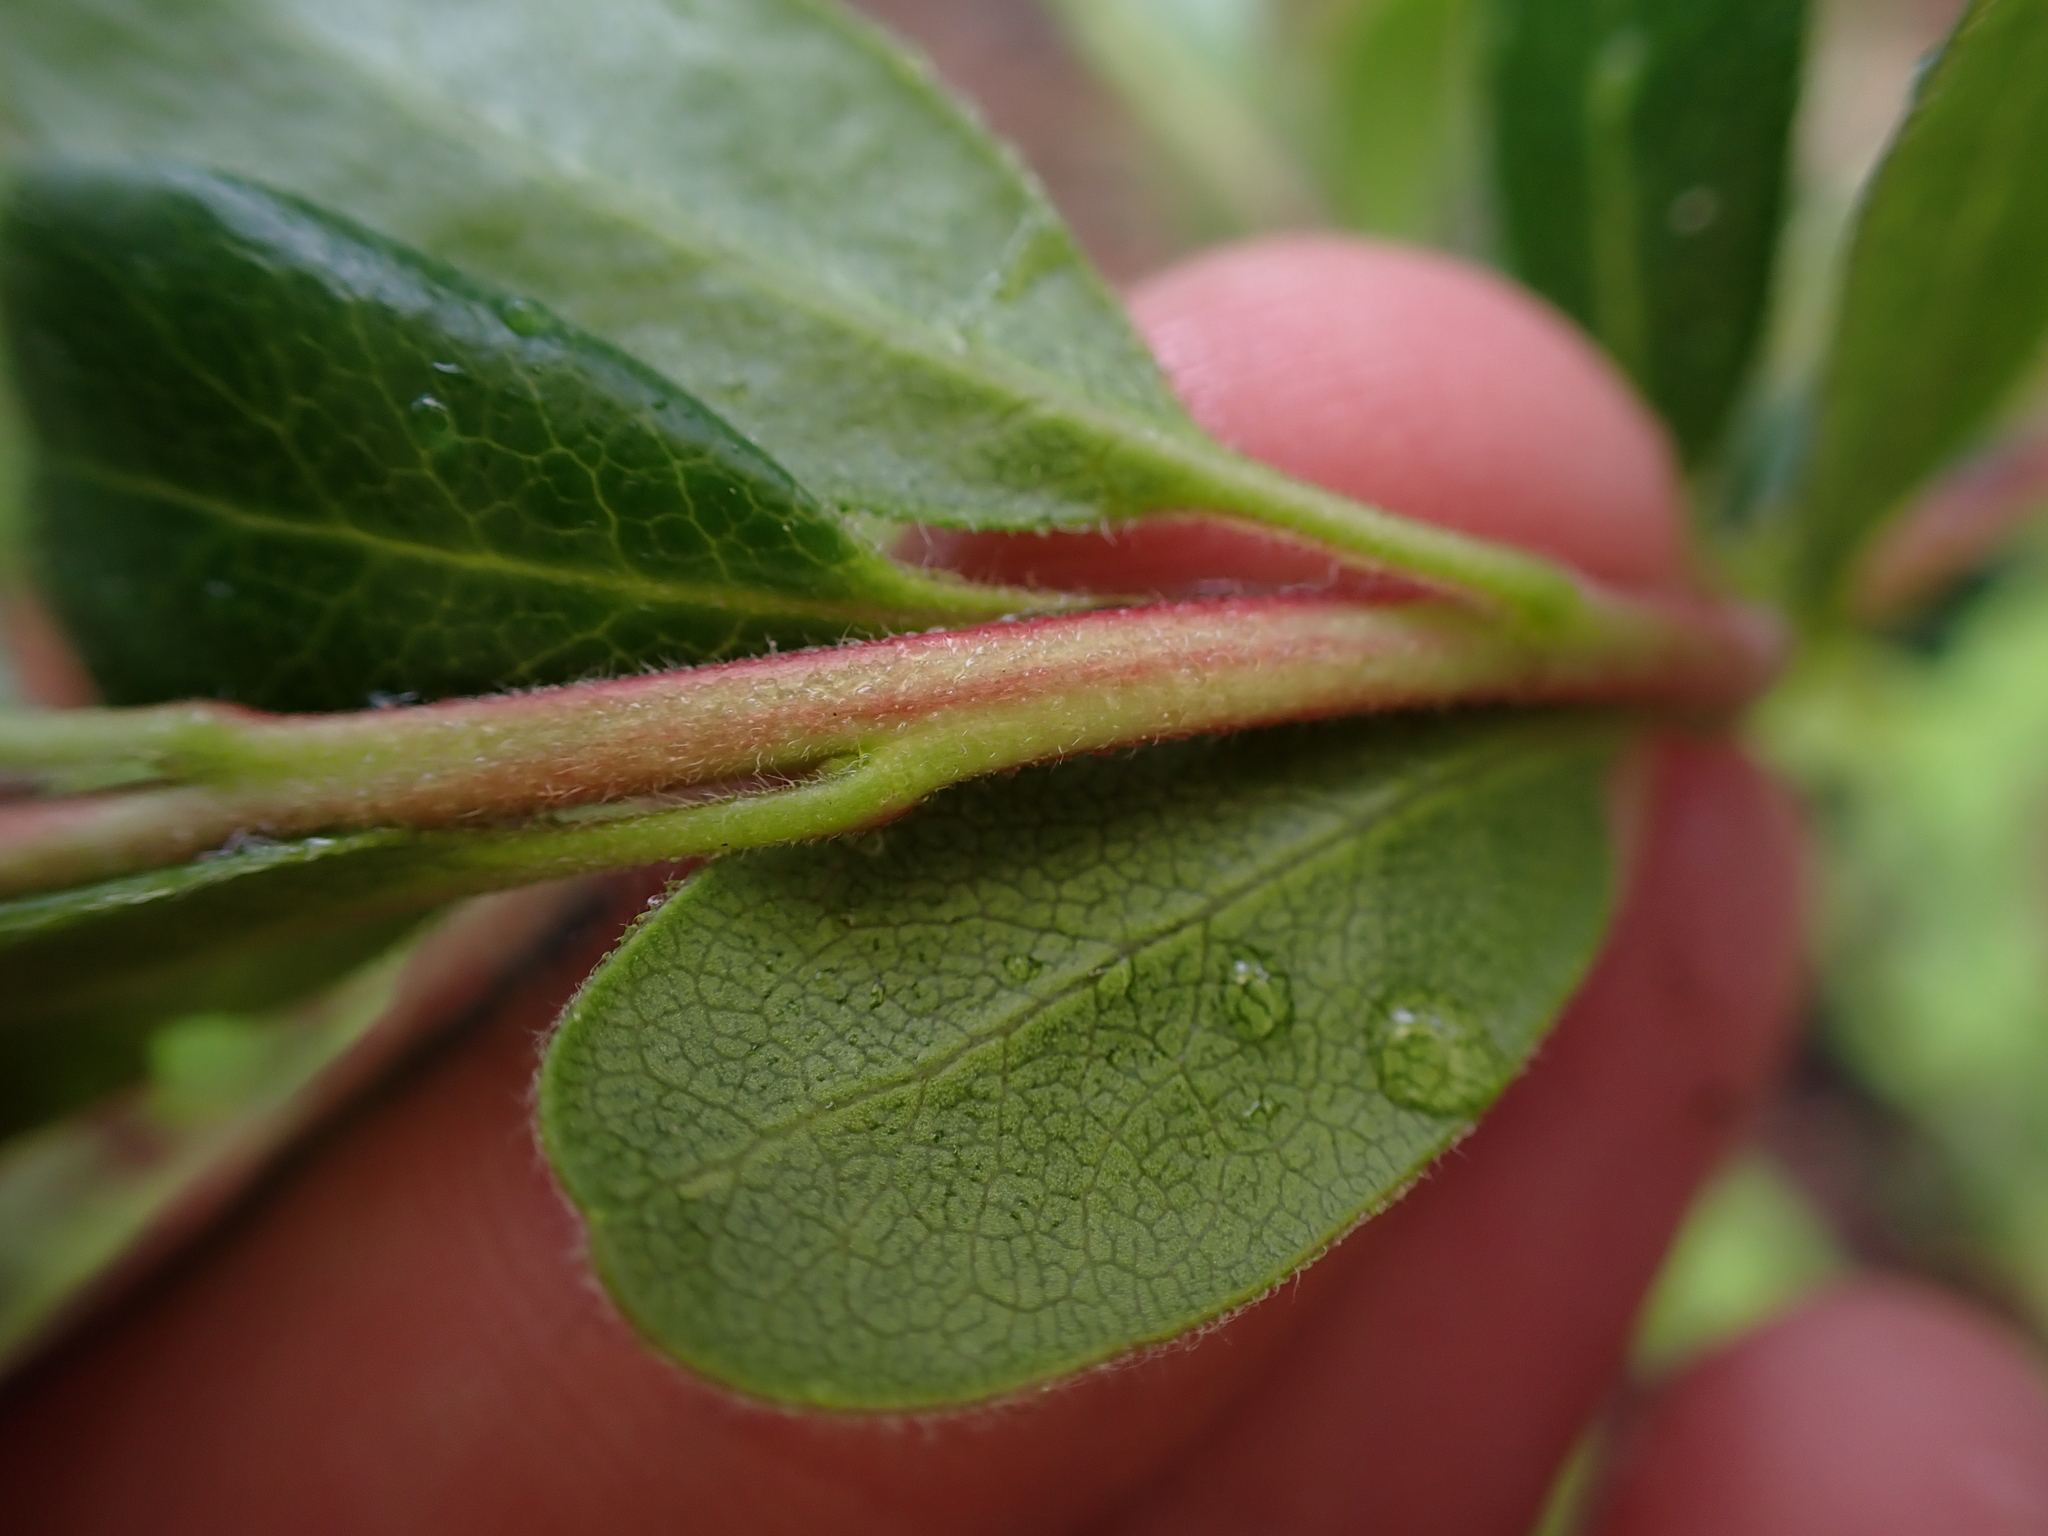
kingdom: Plantae
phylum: Tracheophyta
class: Magnoliopsida
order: Ericales
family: Ericaceae
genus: Arctostaphylos
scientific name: Arctostaphylos uva-ursi
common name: Bearberry
